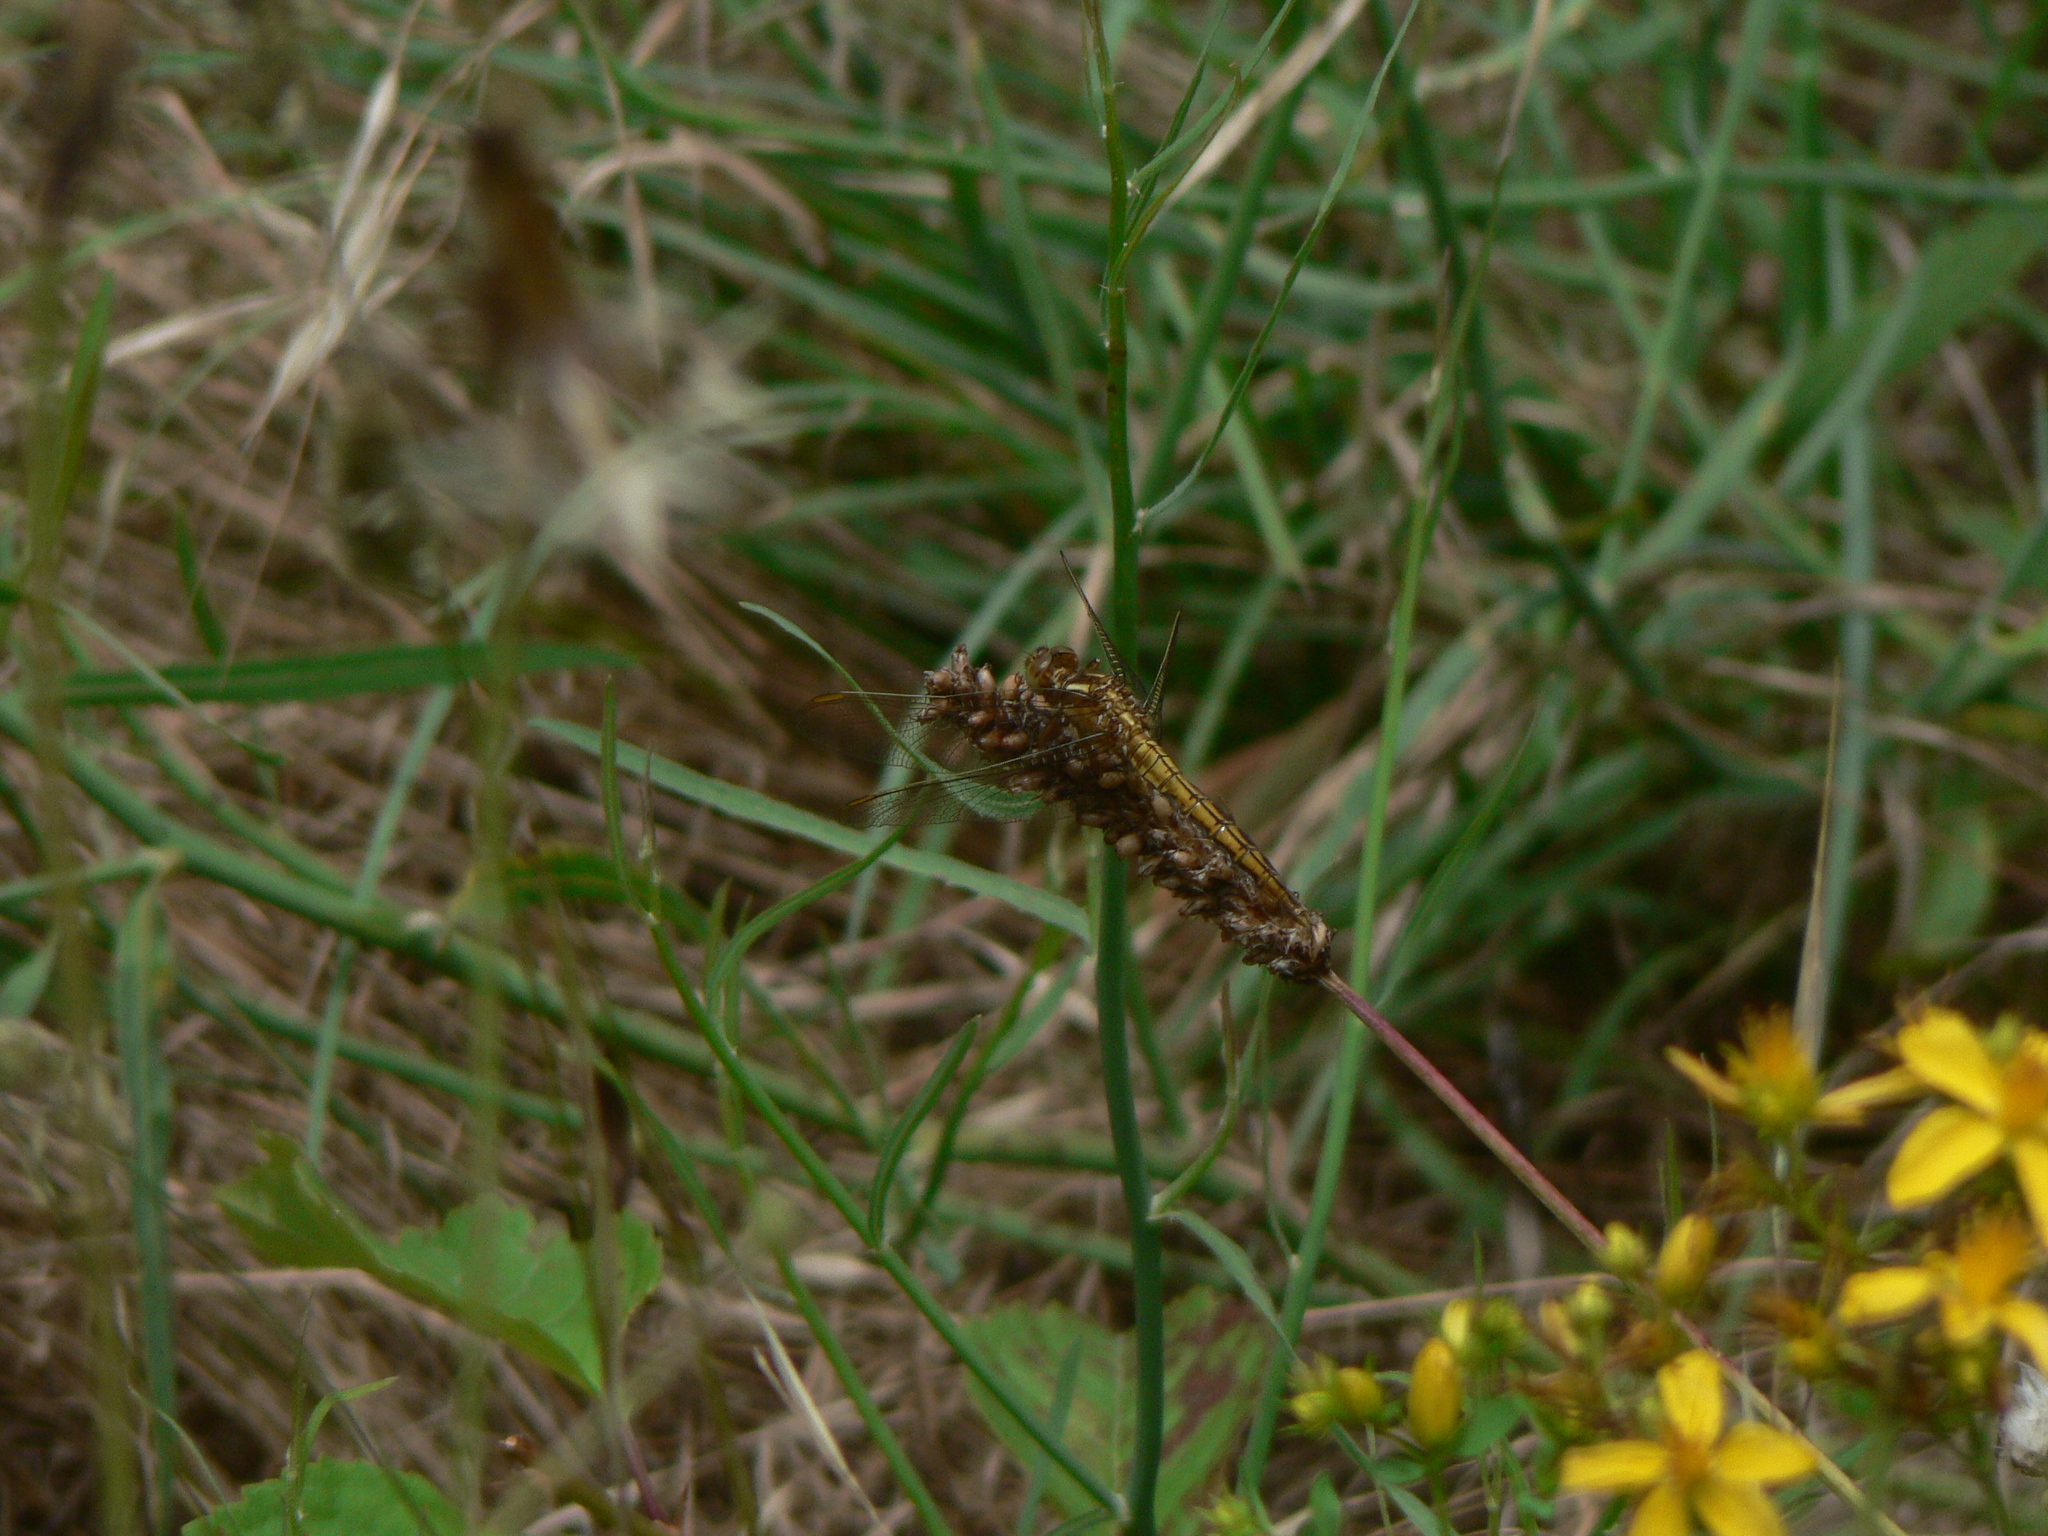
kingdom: Animalia
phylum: Arthropoda
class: Insecta
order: Odonata
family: Libellulidae
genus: Orthetrum
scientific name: Orthetrum coerulescens
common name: Keeled skimmer
